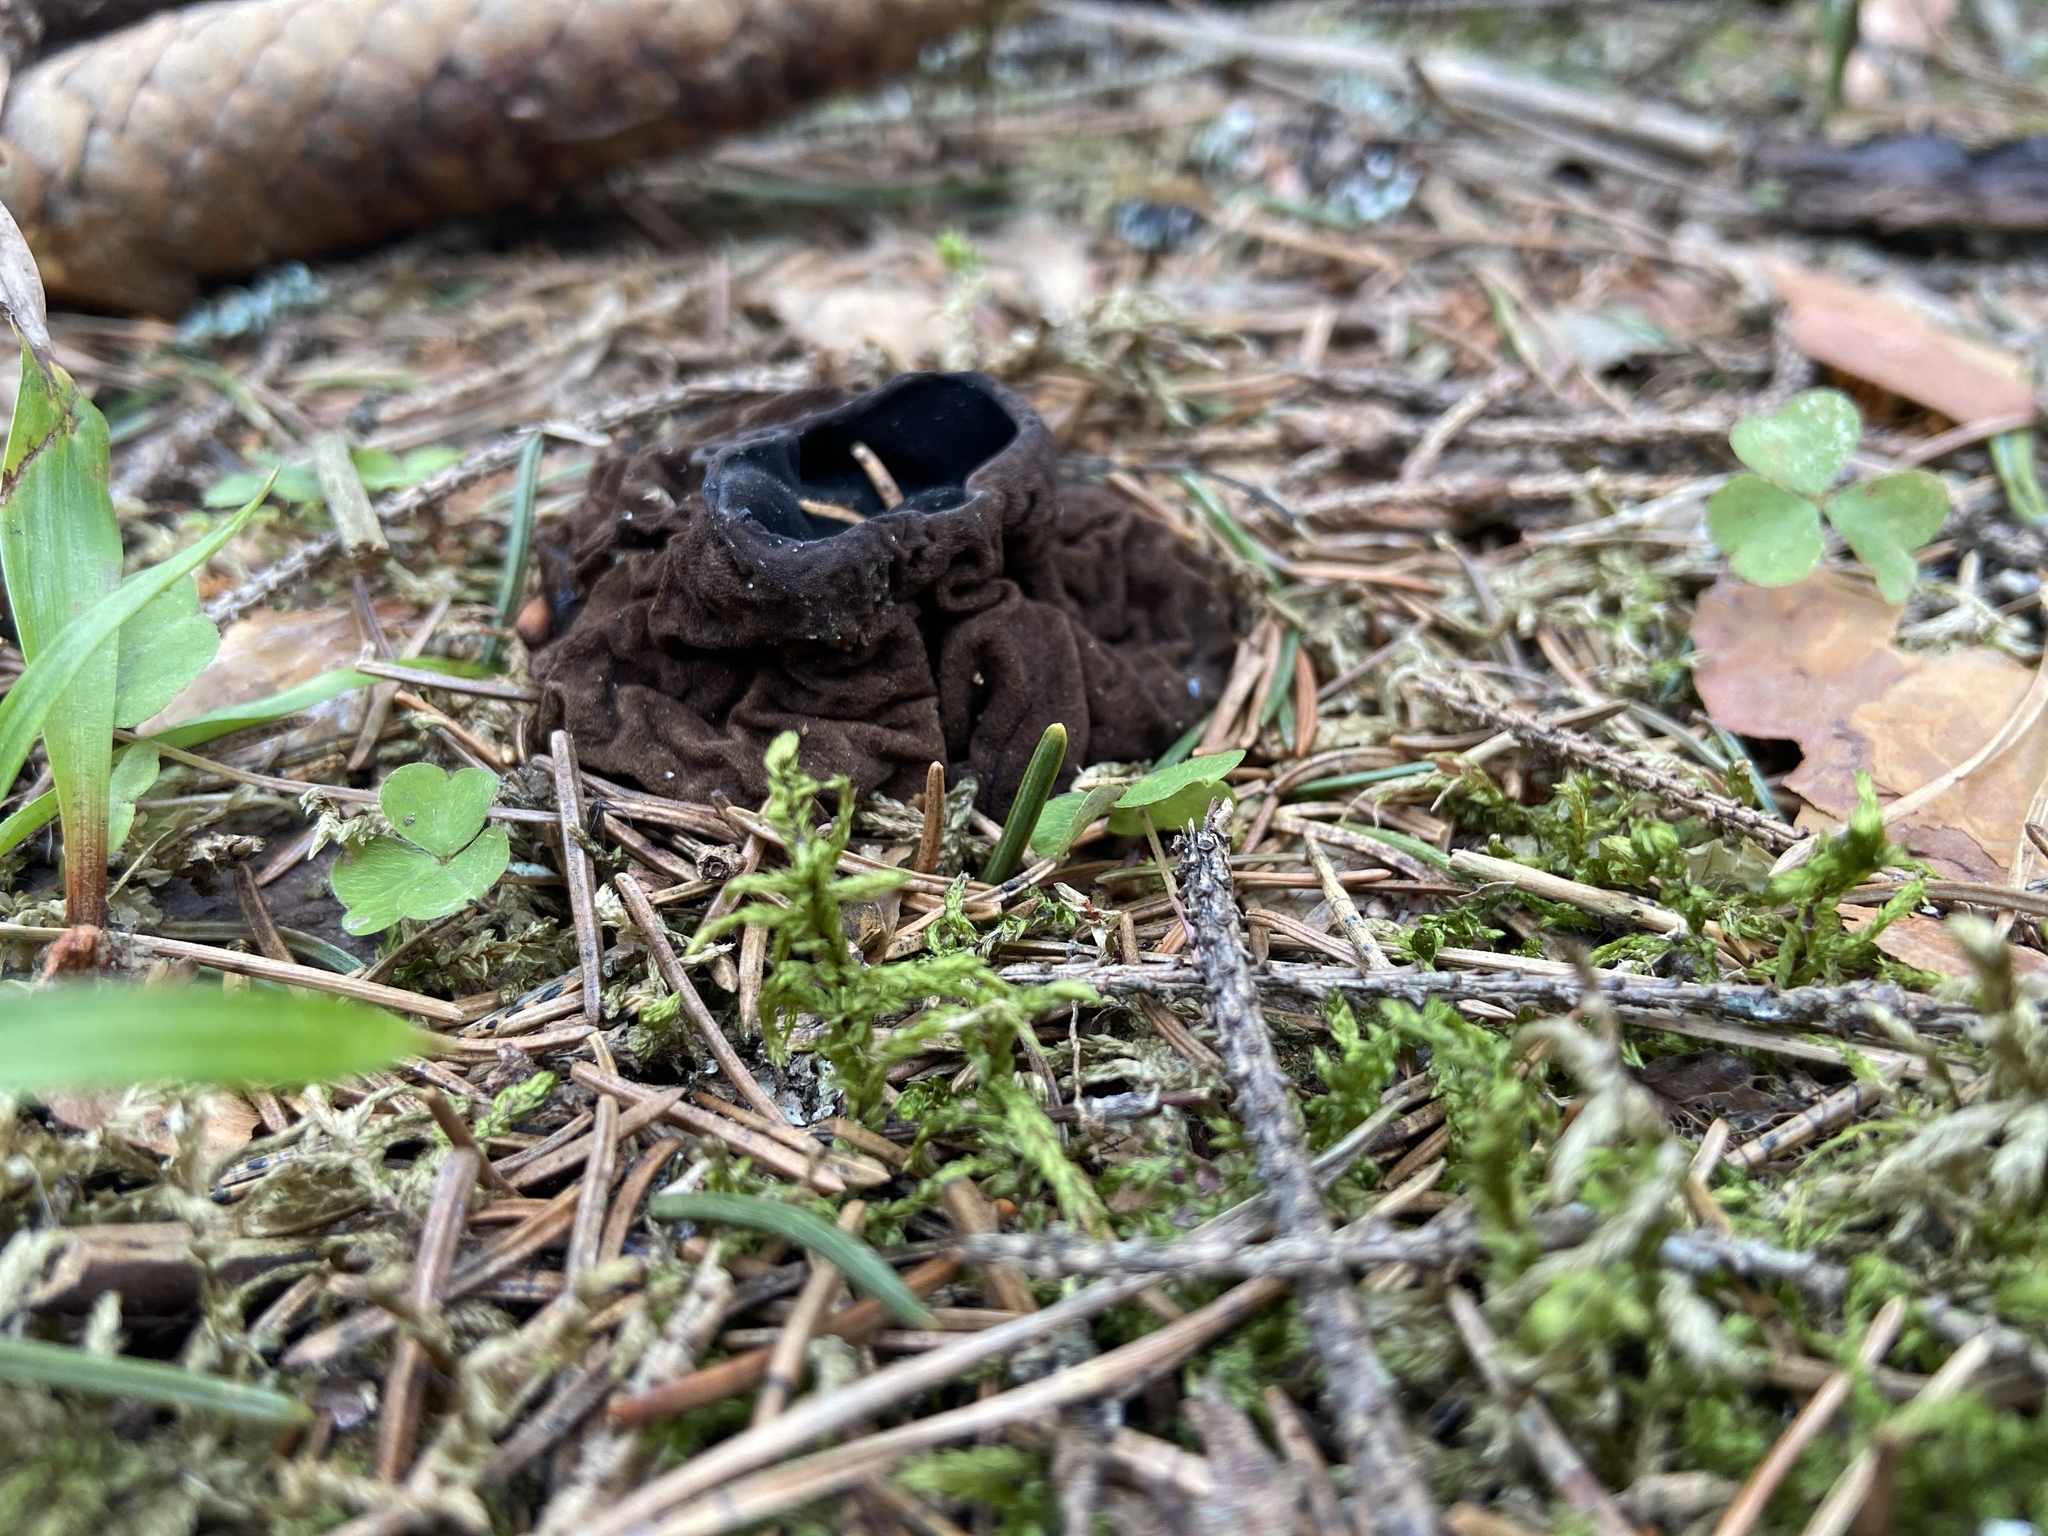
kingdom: Fungi
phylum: Ascomycota
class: Pezizomycetes
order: Pezizales
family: Sarcosomataceae
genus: Sarcosoma
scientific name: Sarcosoma globosum
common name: Charred-pancake cup
